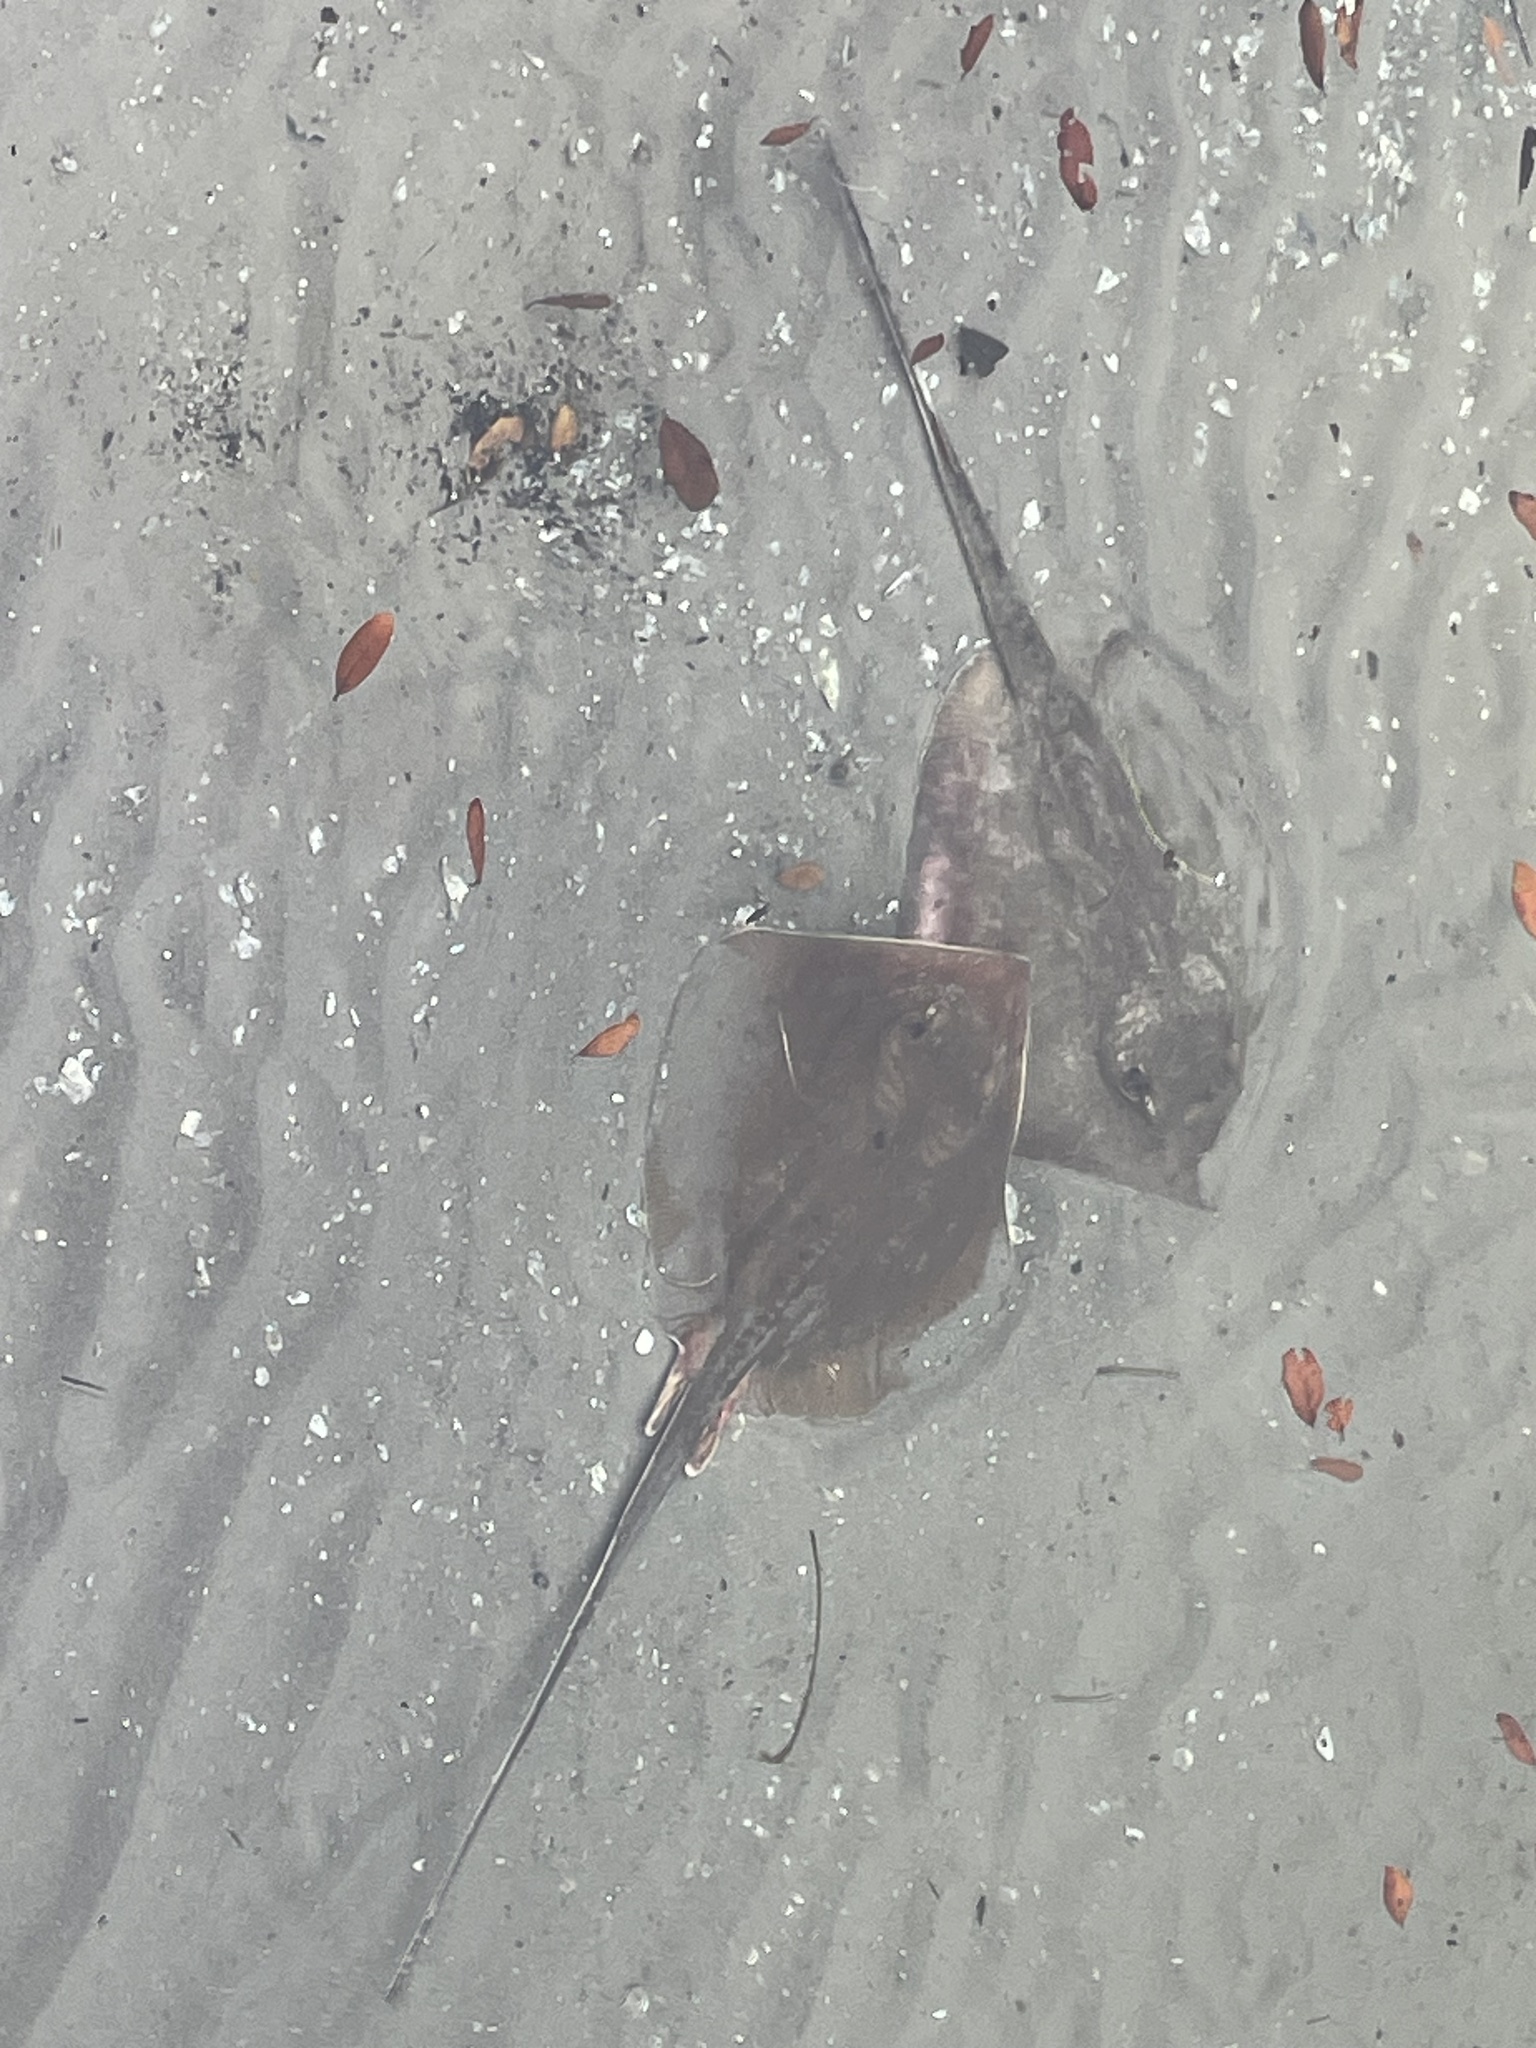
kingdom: Animalia
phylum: Chordata
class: Elasmobranchii
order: Myliobatiformes
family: Dasyatidae
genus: Hypanus
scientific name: Hypanus sabinus
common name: Atlantic stingray
